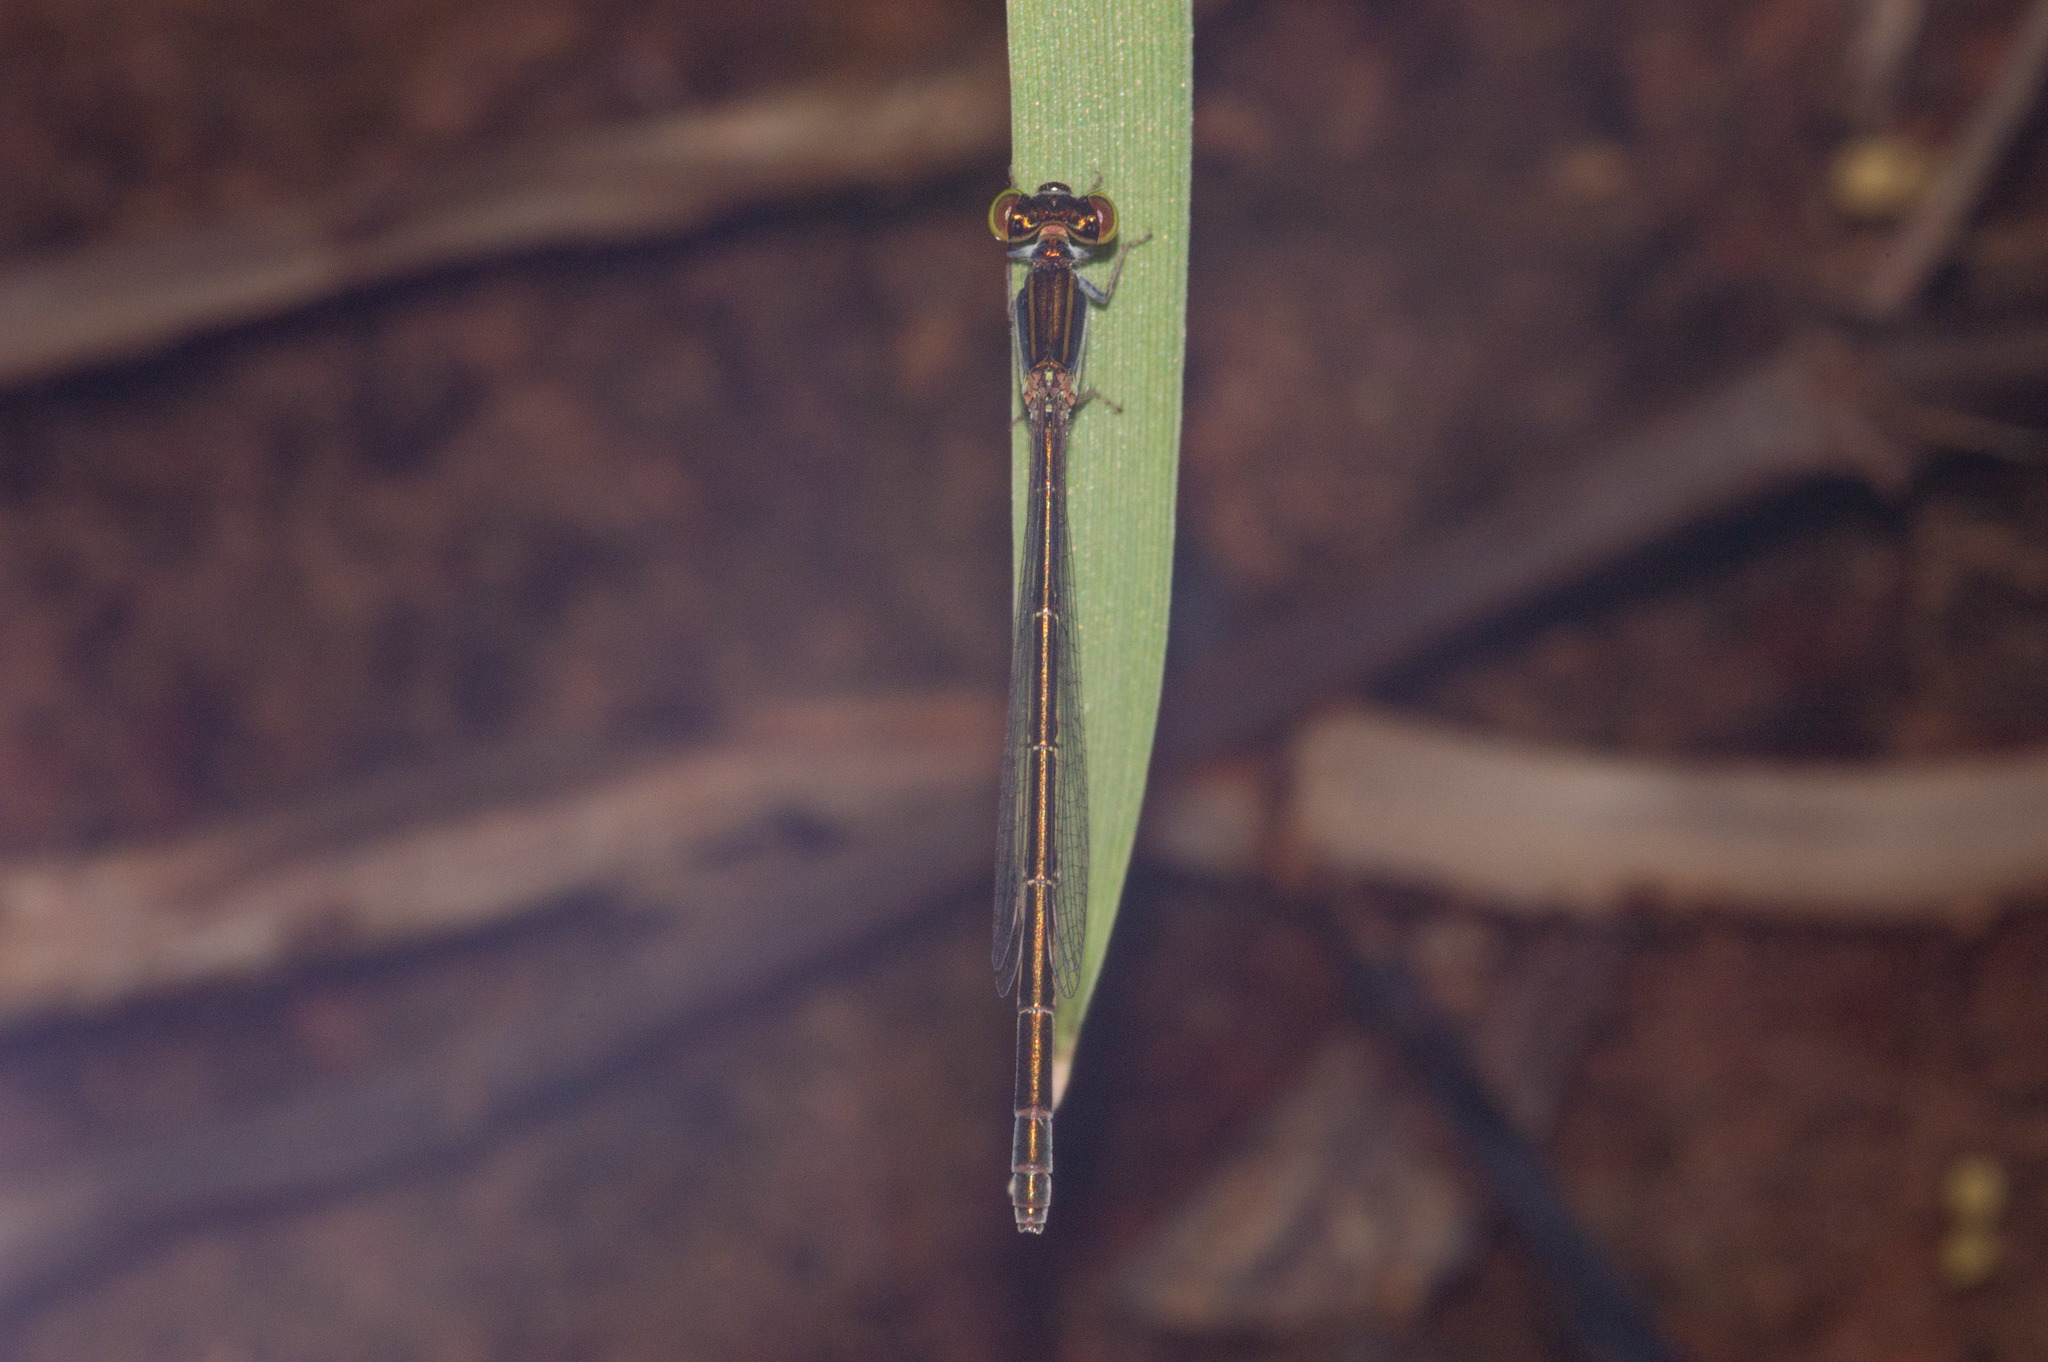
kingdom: Animalia
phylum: Arthropoda
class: Insecta
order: Odonata
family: Coenagrionidae
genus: Ischnura
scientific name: Ischnura aurora
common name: Gossamer damselfly
